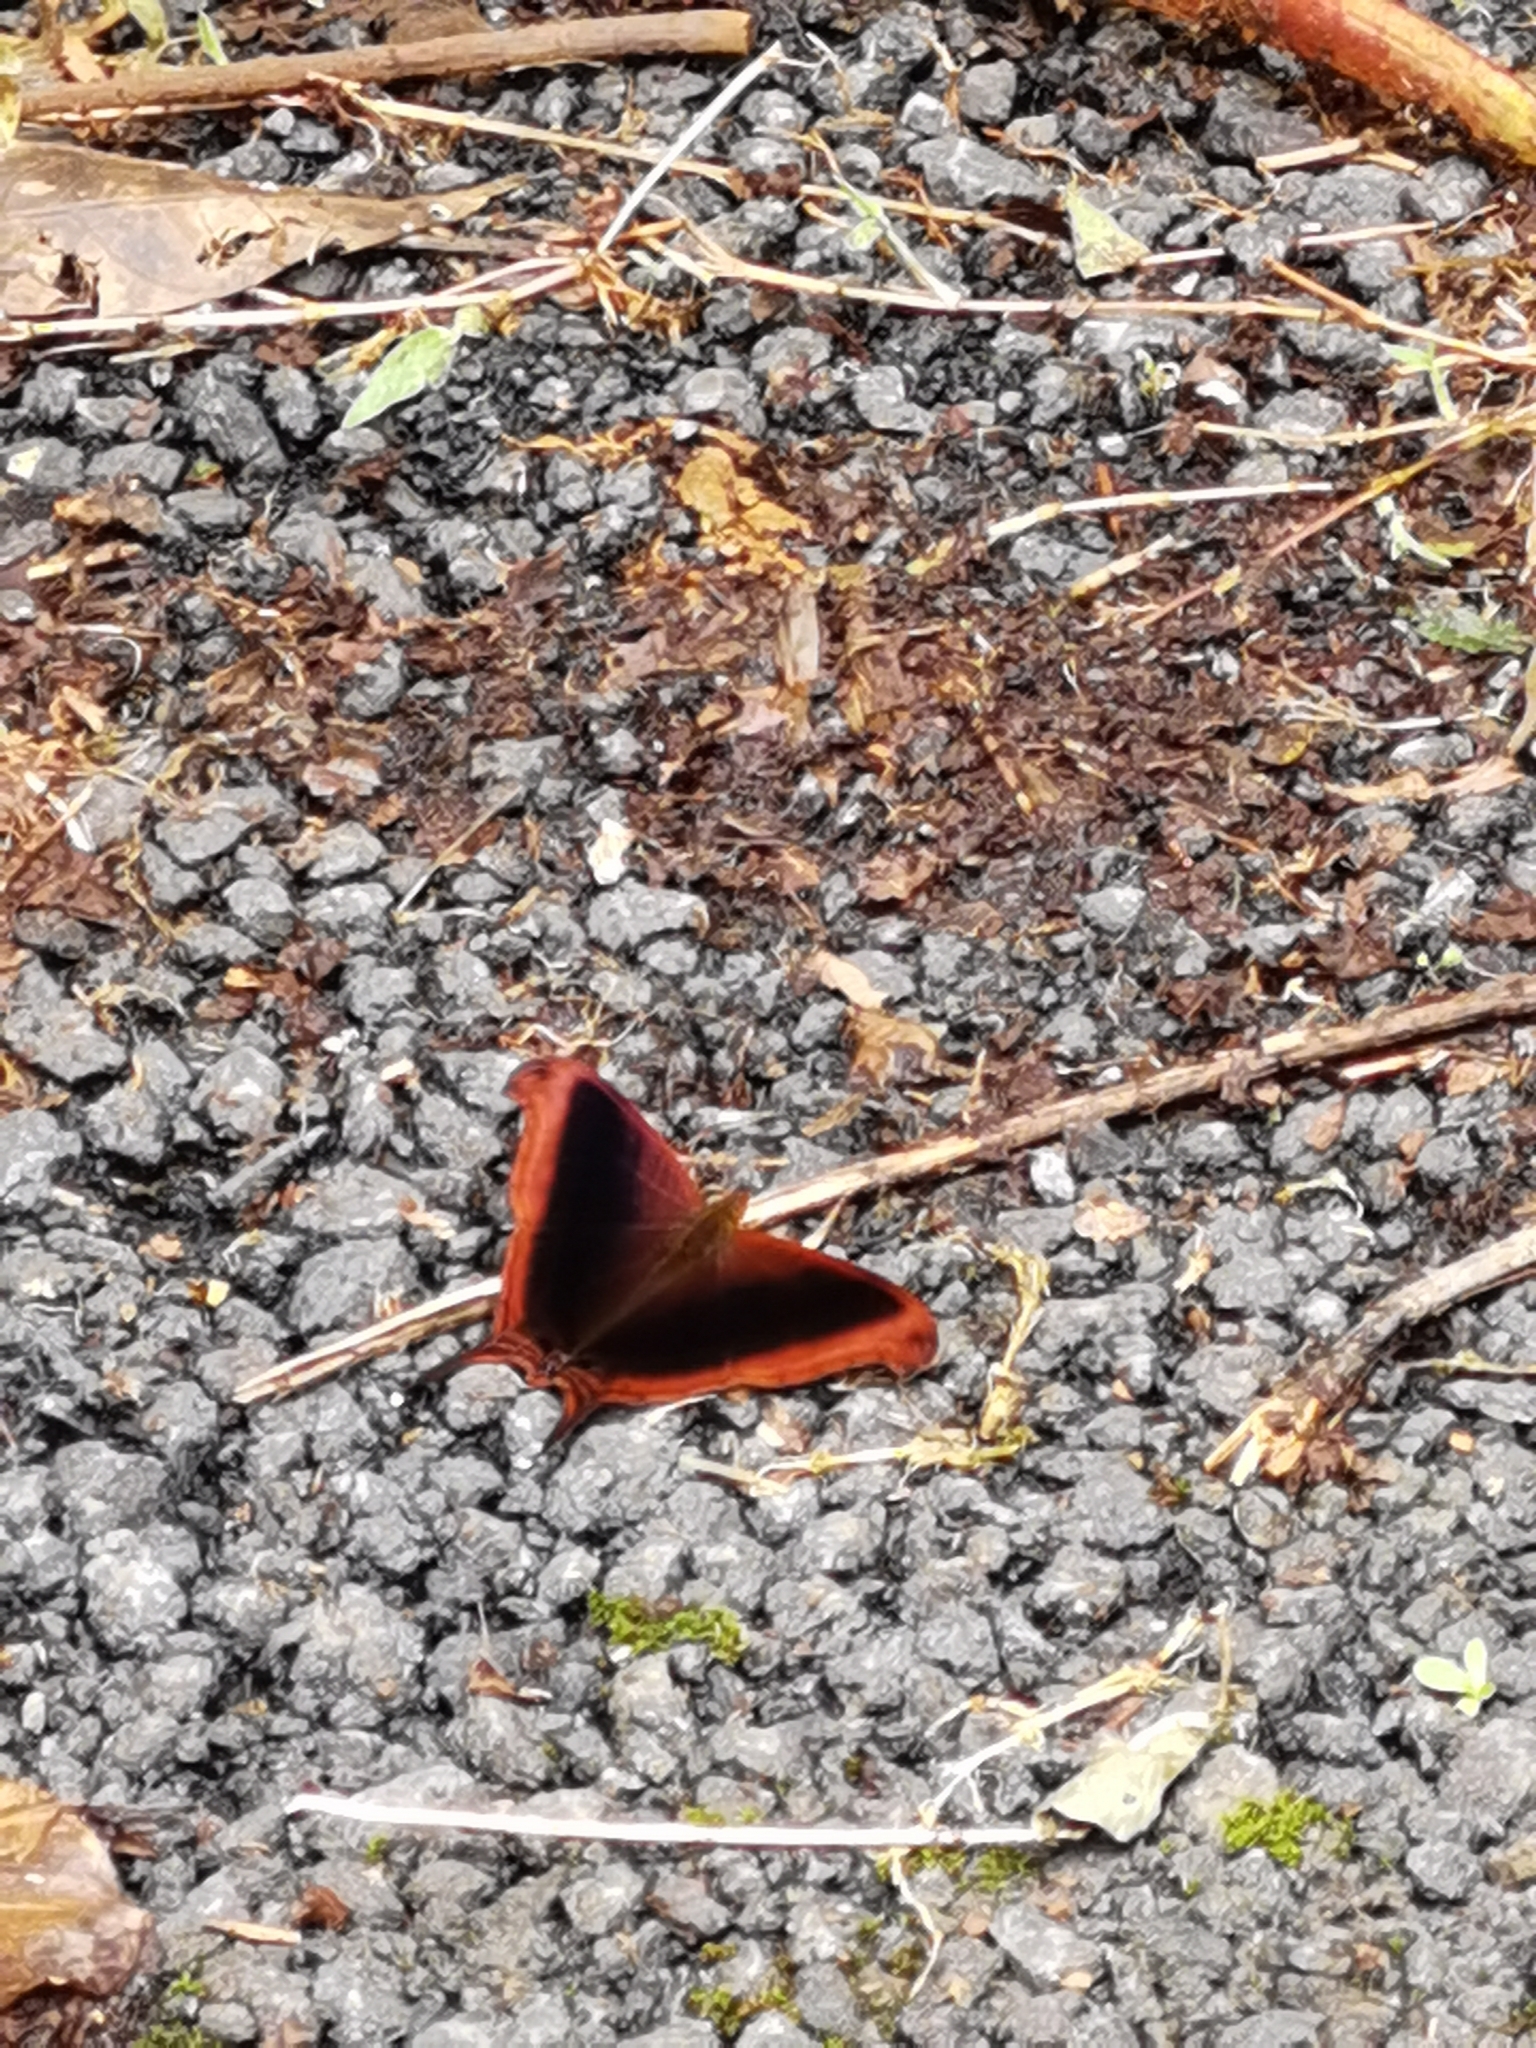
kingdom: Animalia
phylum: Arthropoda
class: Insecta
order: Lepidoptera
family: Nymphalidae
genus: Marpesia
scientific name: Marpesia zerynthia
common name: Waiter daggerwing
